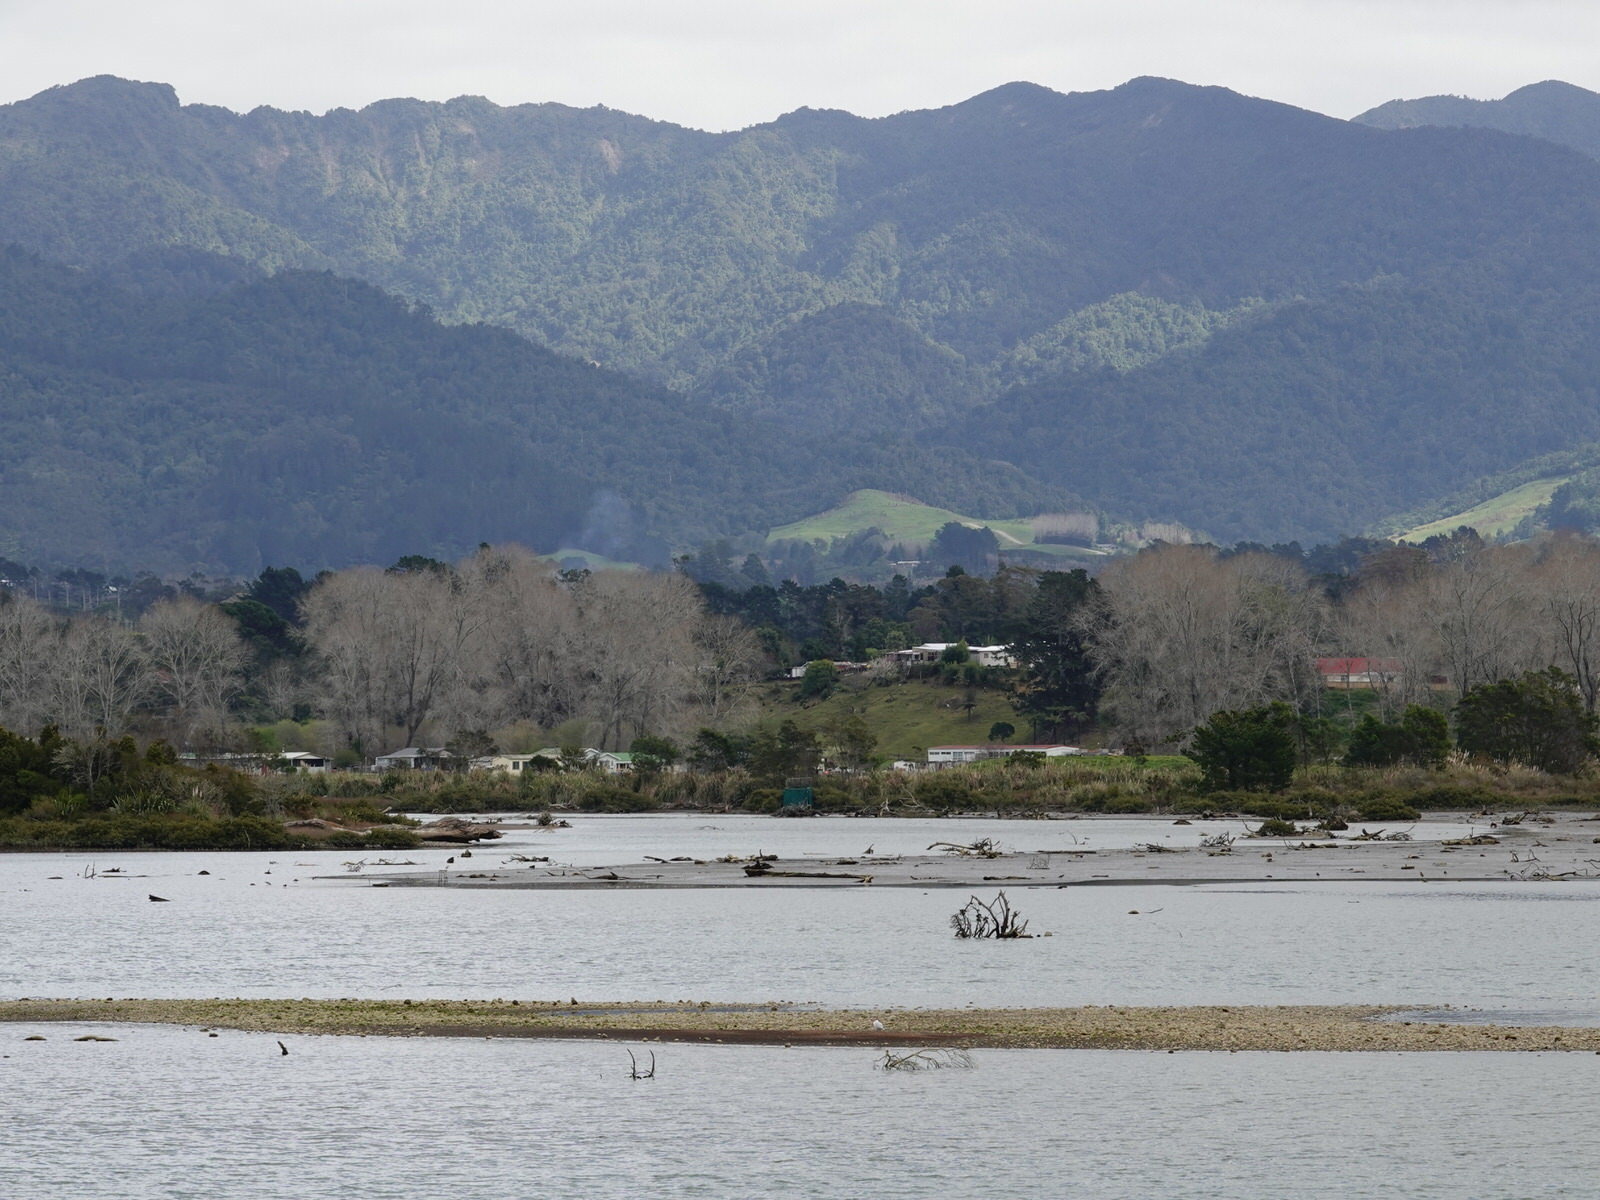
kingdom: Animalia
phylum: Chordata
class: Aves
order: Charadriiformes
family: Laridae
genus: Hydroprogne
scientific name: Hydroprogne caspia
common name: Caspian tern
